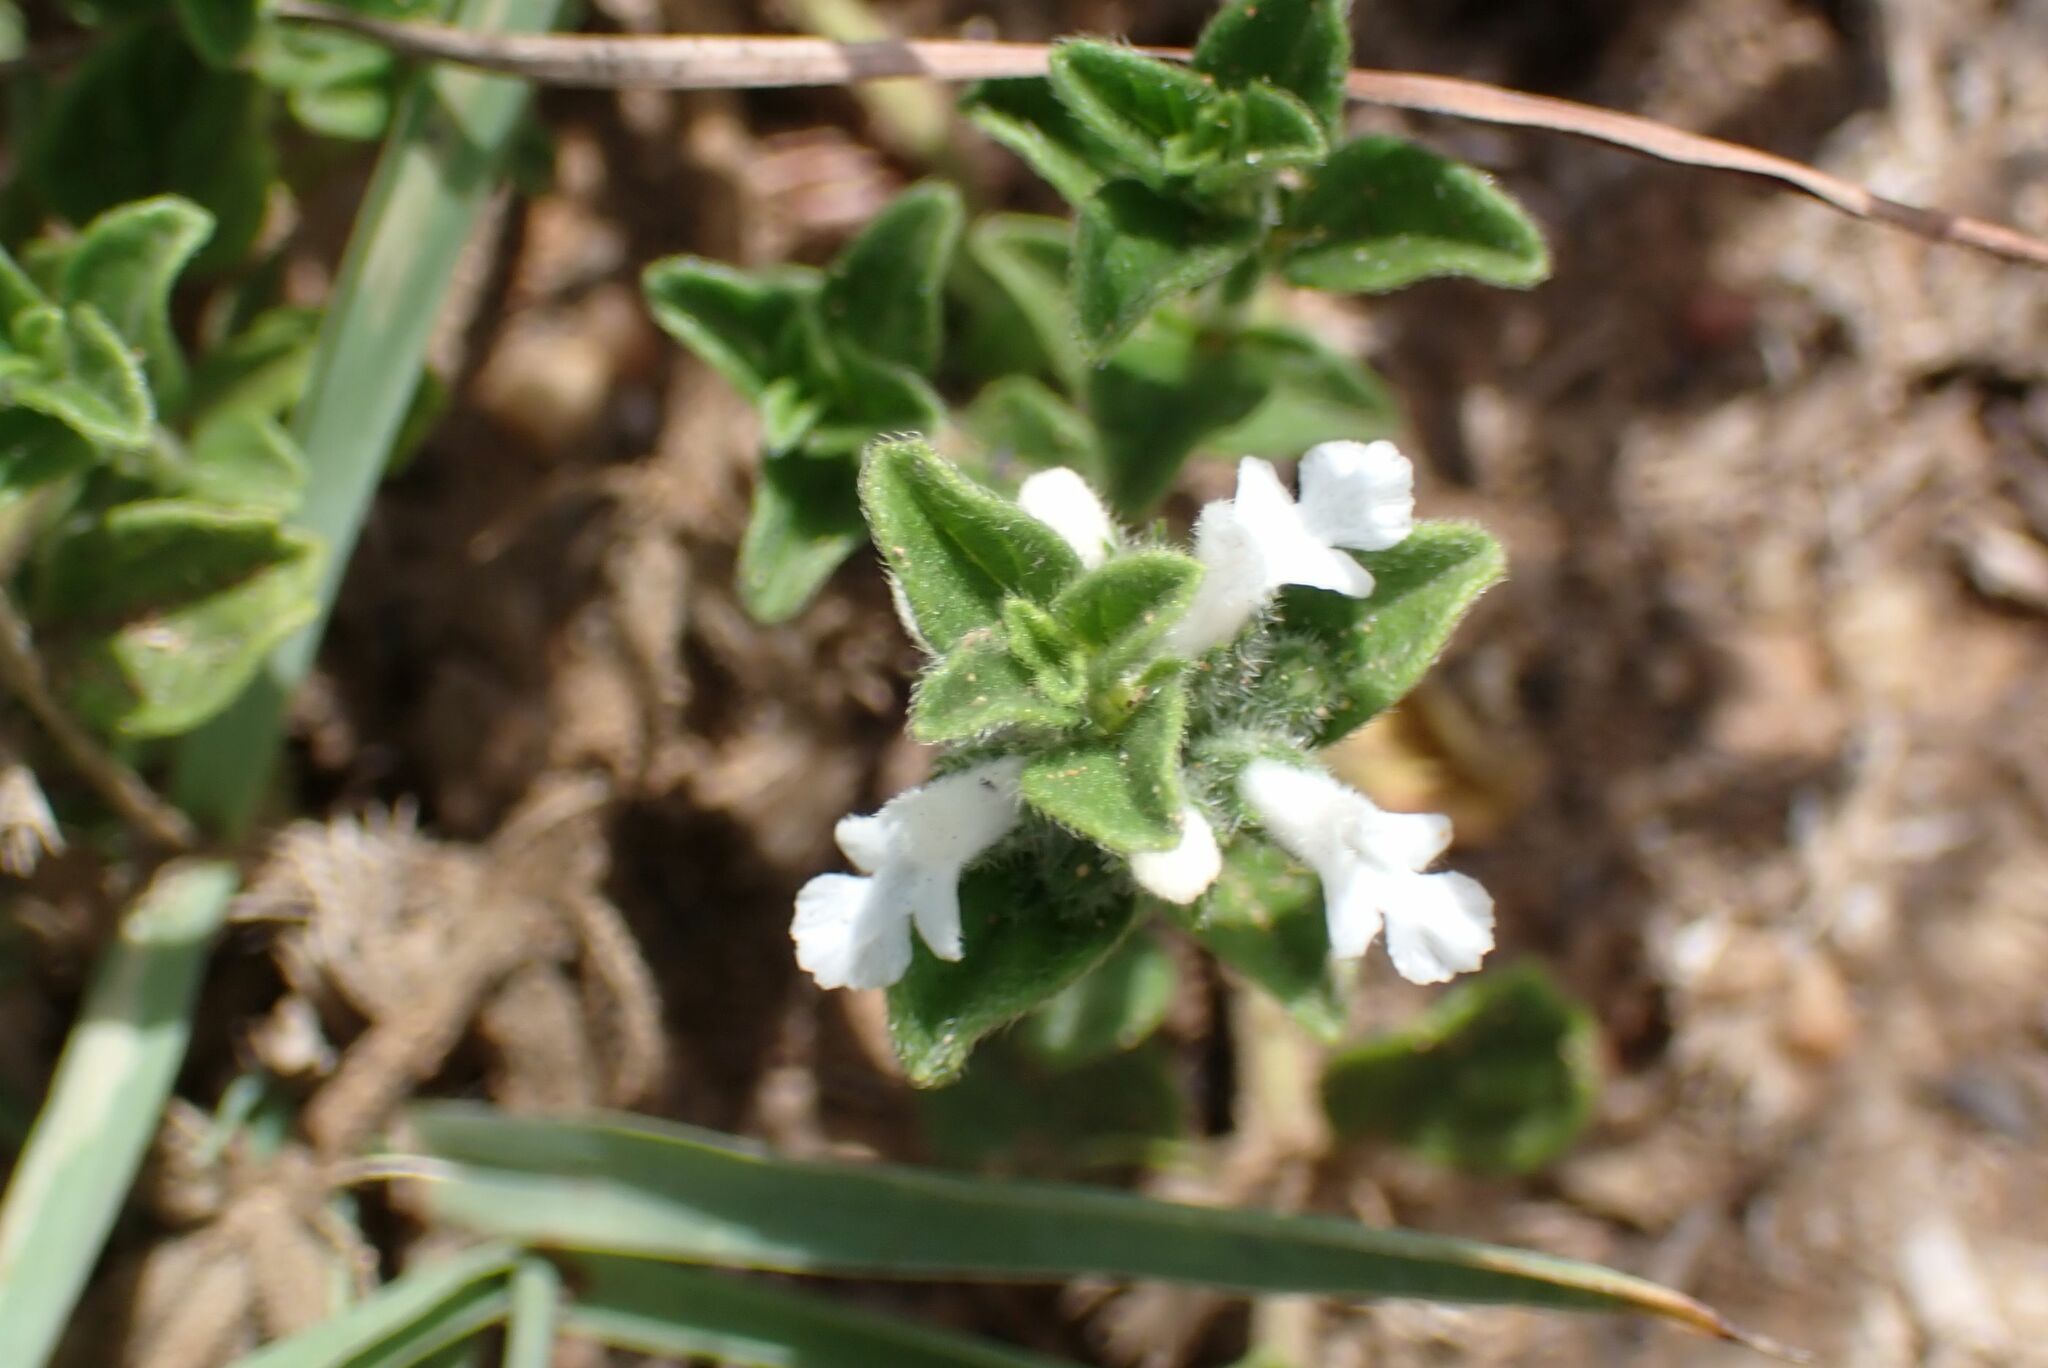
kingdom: Plantae
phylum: Tracheophyta
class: Magnoliopsida
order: Lamiales
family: Lamiaceae
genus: Acrotome
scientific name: Acrotome hispida
